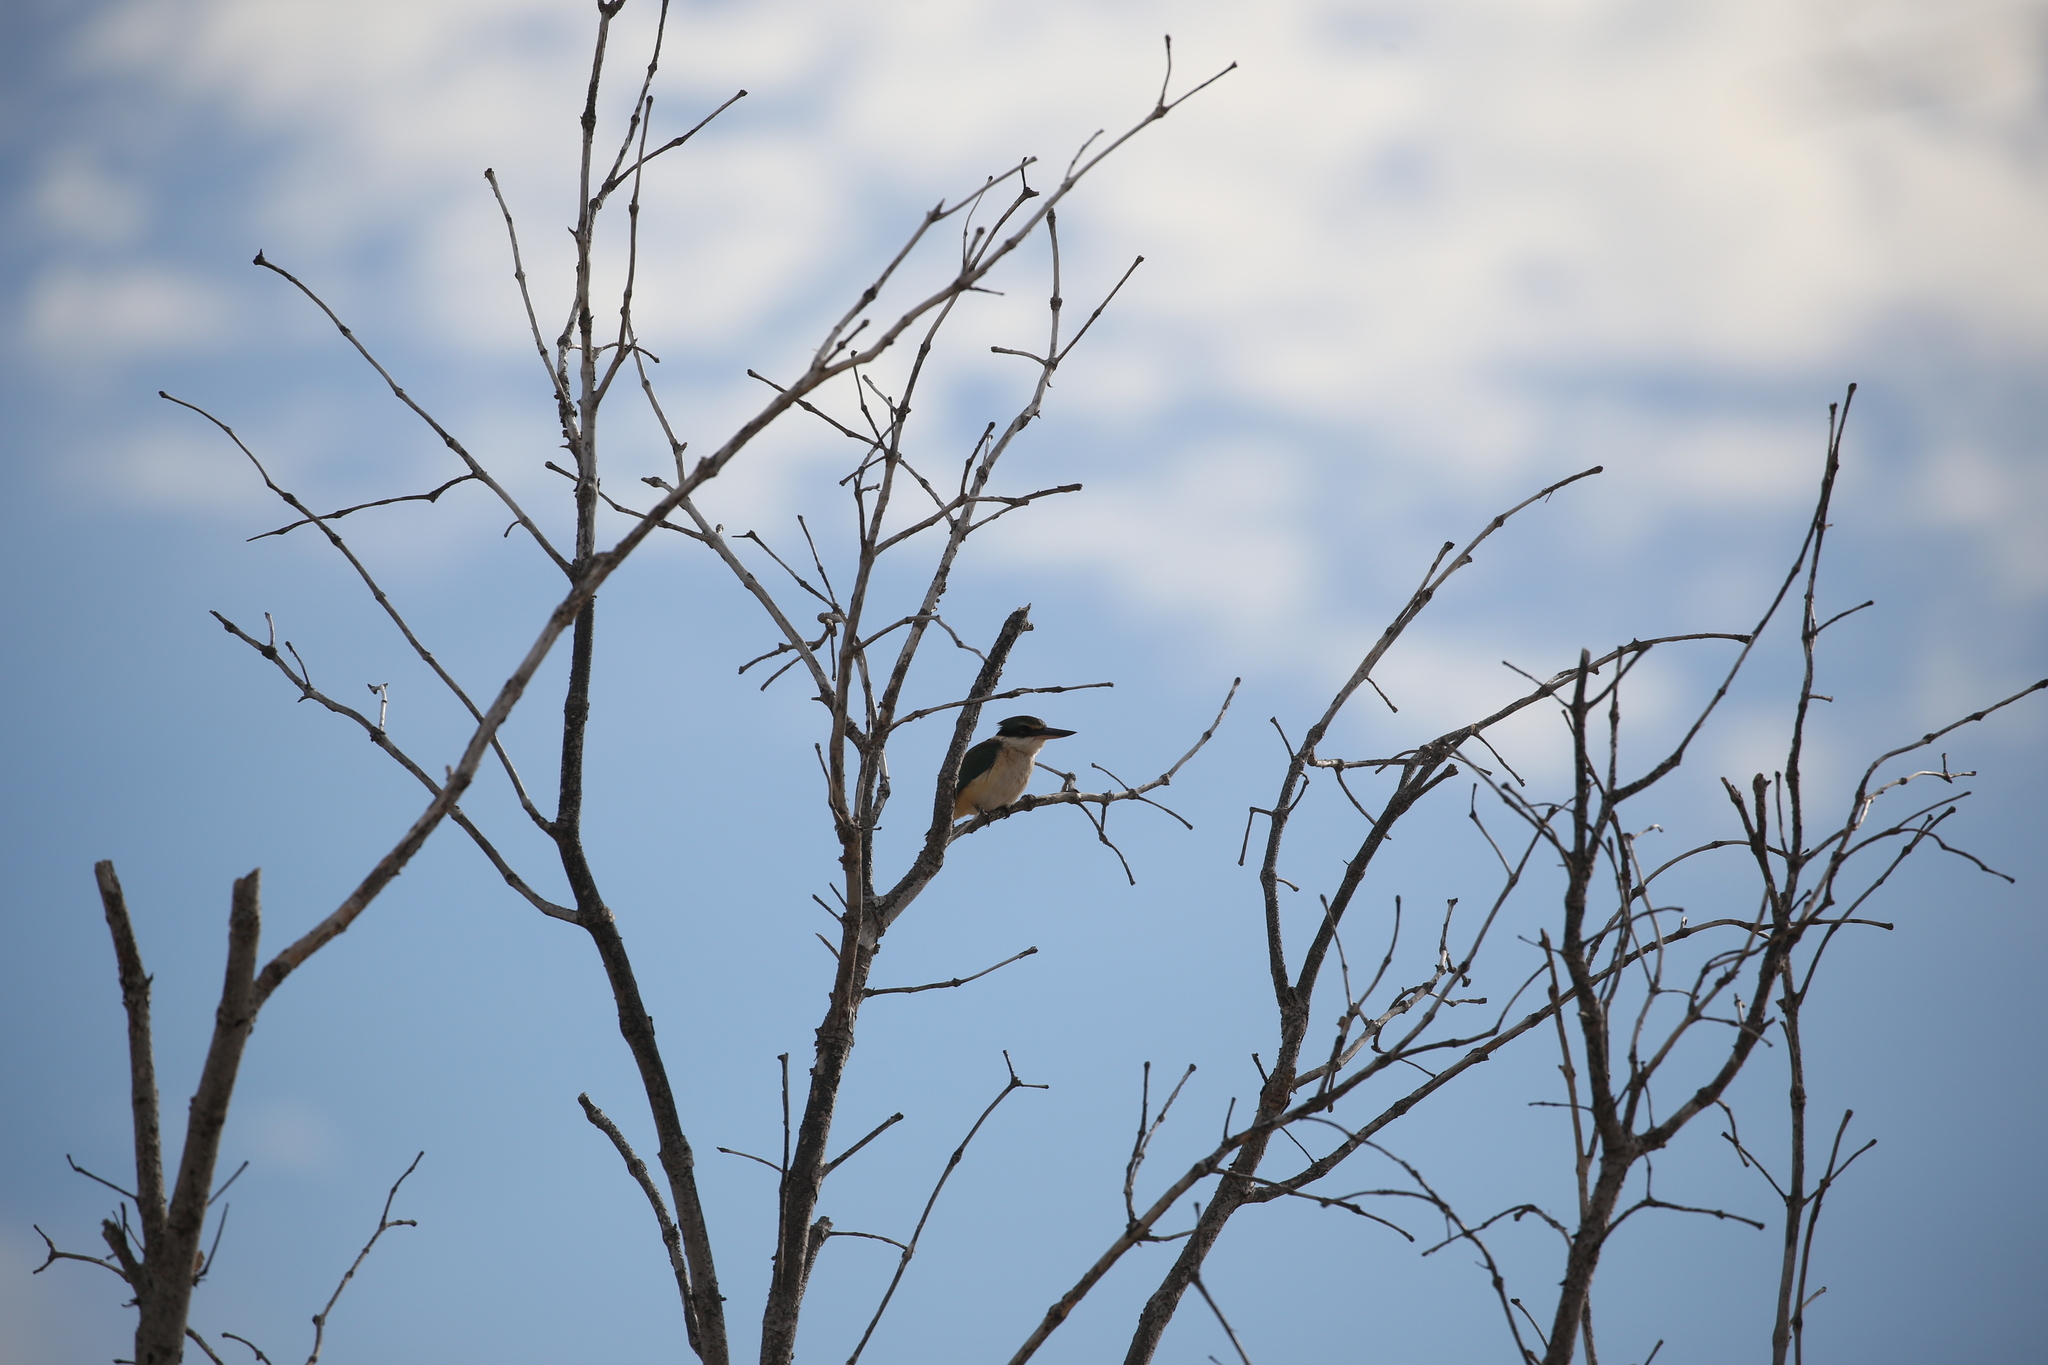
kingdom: Animalia
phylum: Chordata
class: Aves
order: Coraciiformes
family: Alcedinidae
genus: Todiramphus
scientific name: Todiramphus sanctus
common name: Sacred kingfisher
